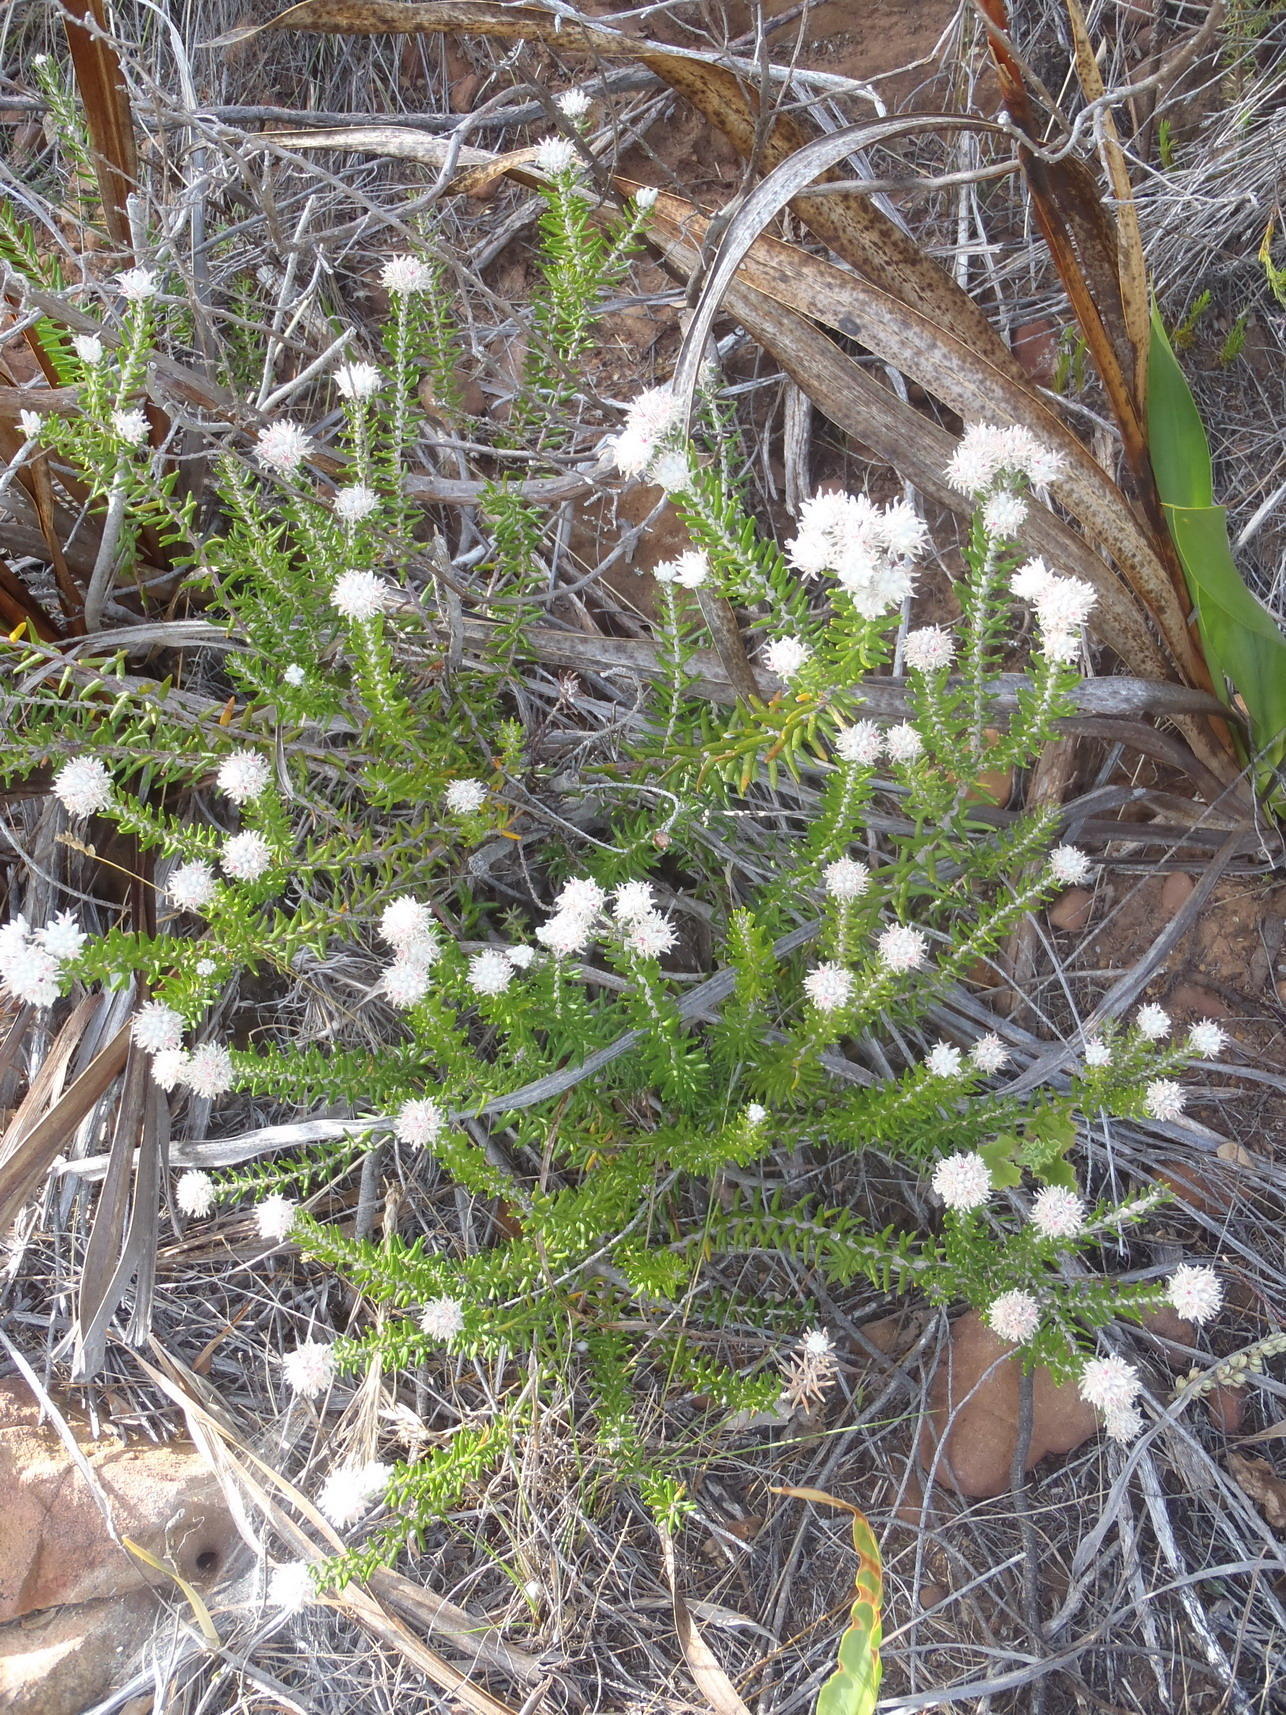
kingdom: Plantae
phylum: Tracheophyta
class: Magnoliopsida
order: Rosales
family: Rhamnaceae
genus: Trichocephalus
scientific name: Trichocephalus stipularis
